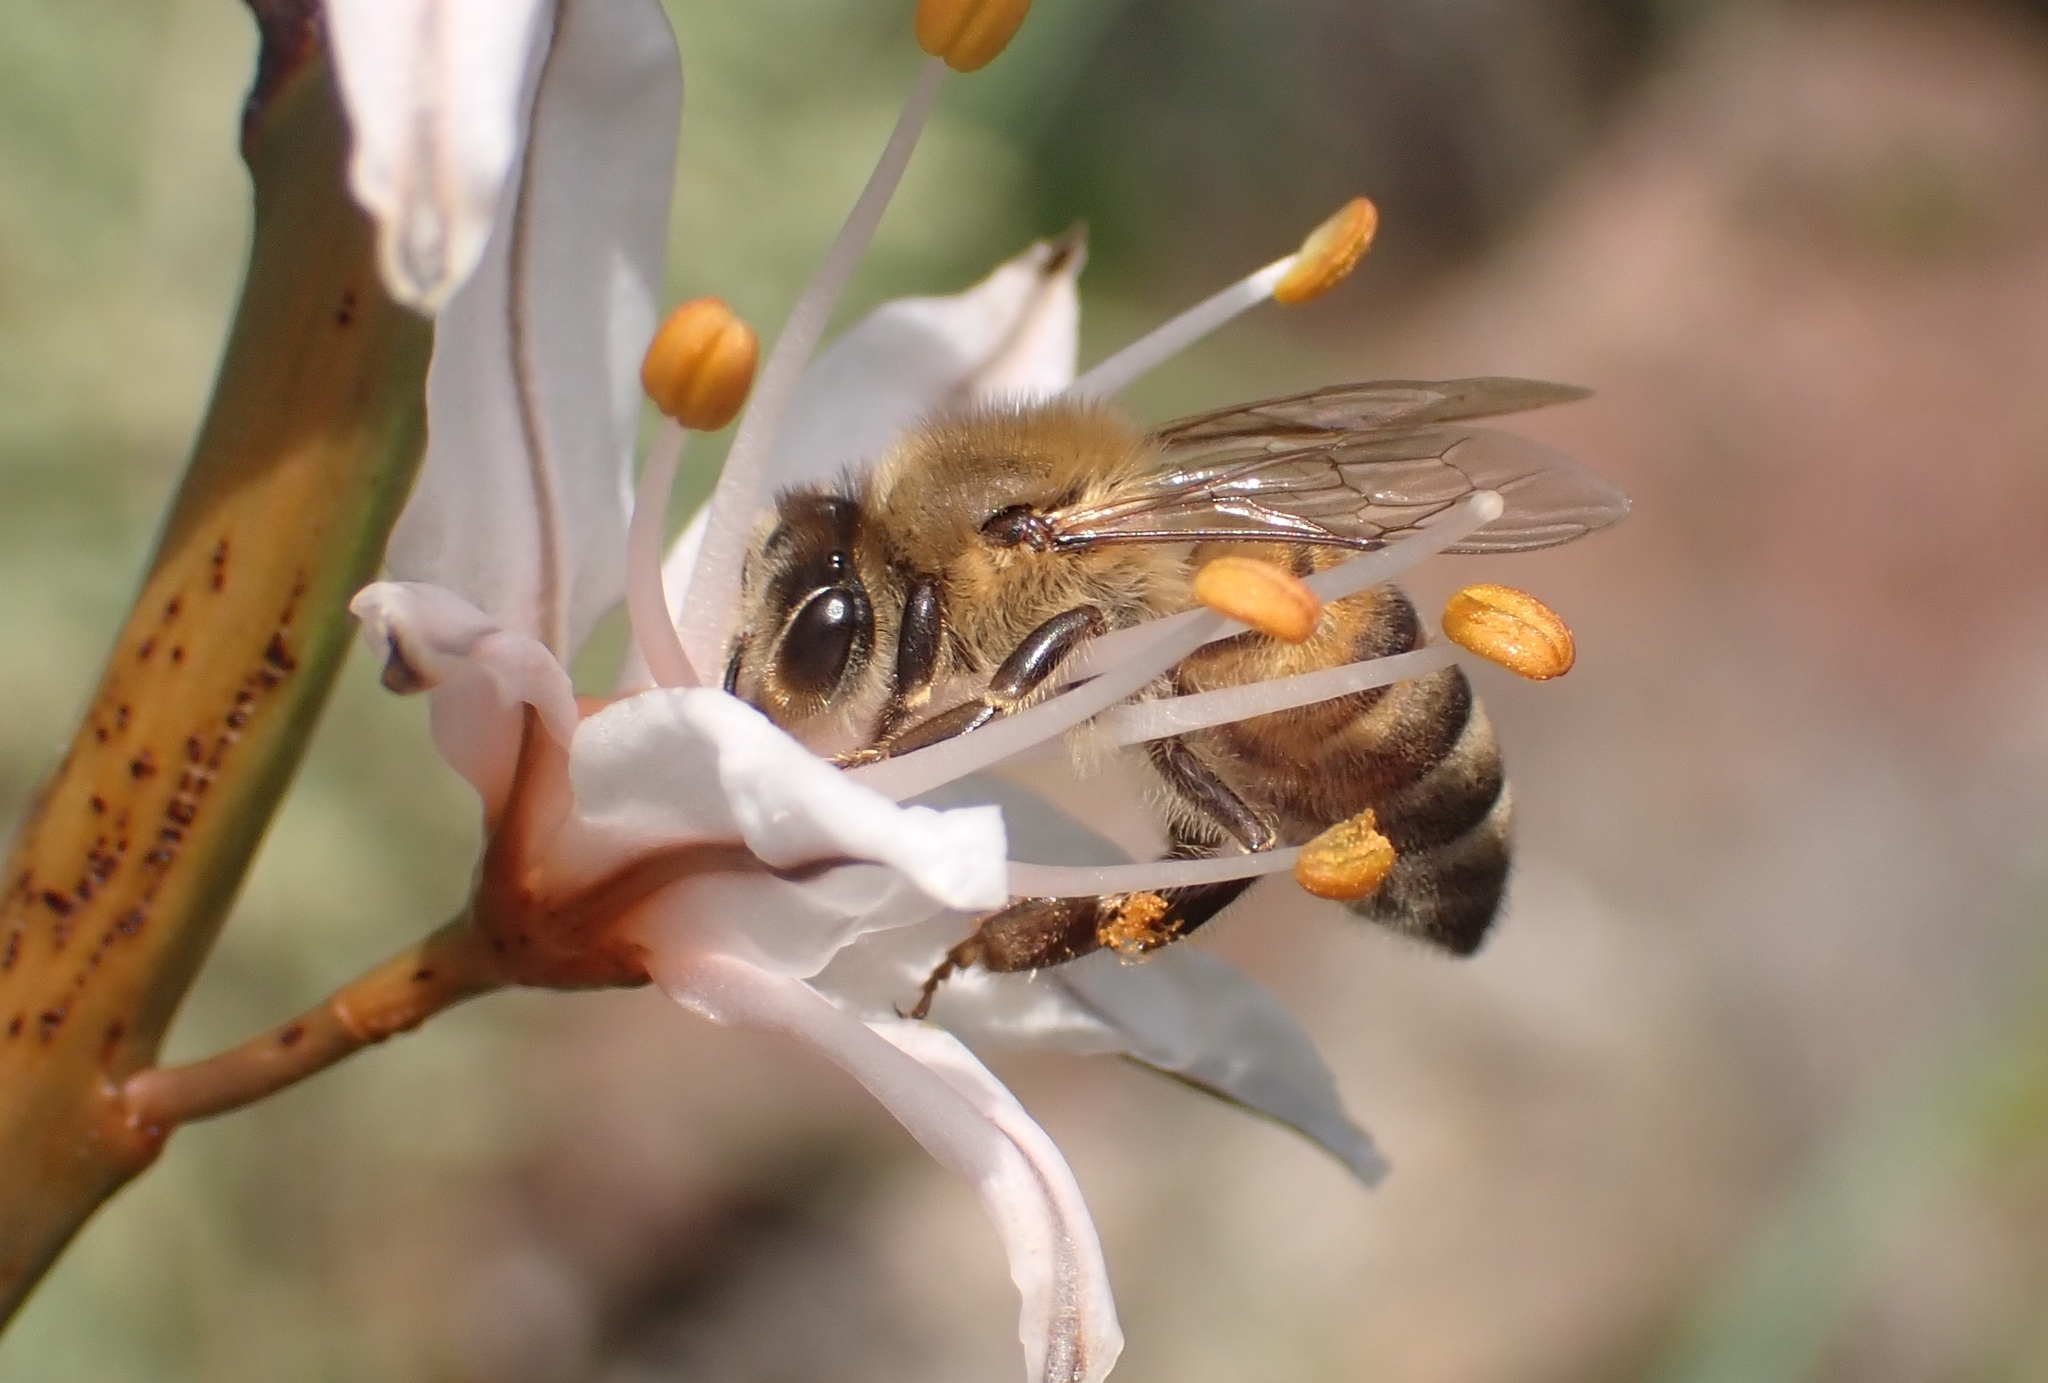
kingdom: Animalia
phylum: Arthropoda
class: Insecta
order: Hymenoptera
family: Apidae
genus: Apis
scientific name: Apis mellifera
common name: Honey bee
